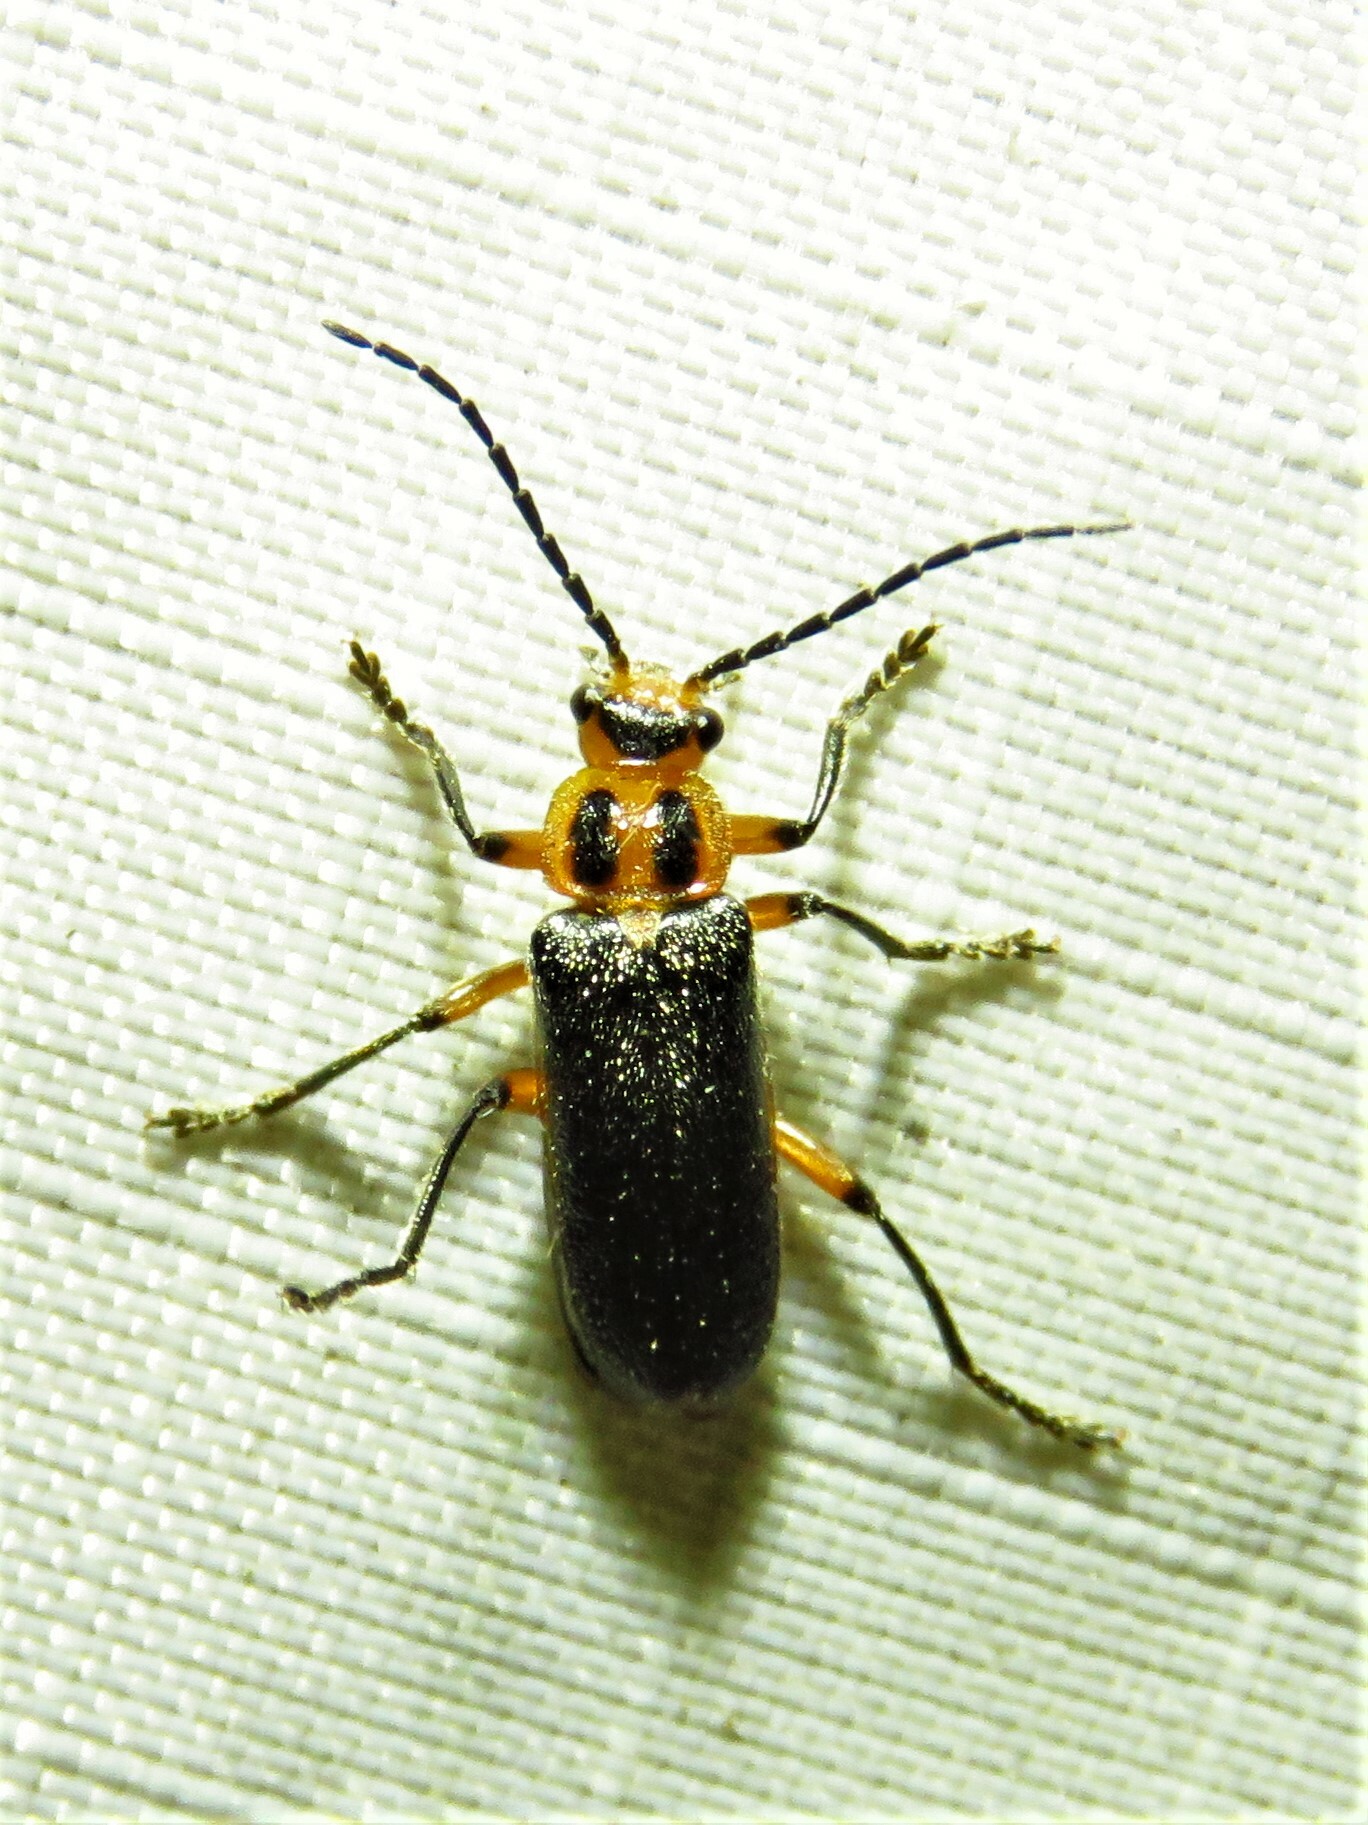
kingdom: Animalia
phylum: Arthropoda
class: Insecta
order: Coleoptera
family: Cantharidae
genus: Atalantycha
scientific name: Atalantycha bilineata
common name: Two-lined leatherwing
